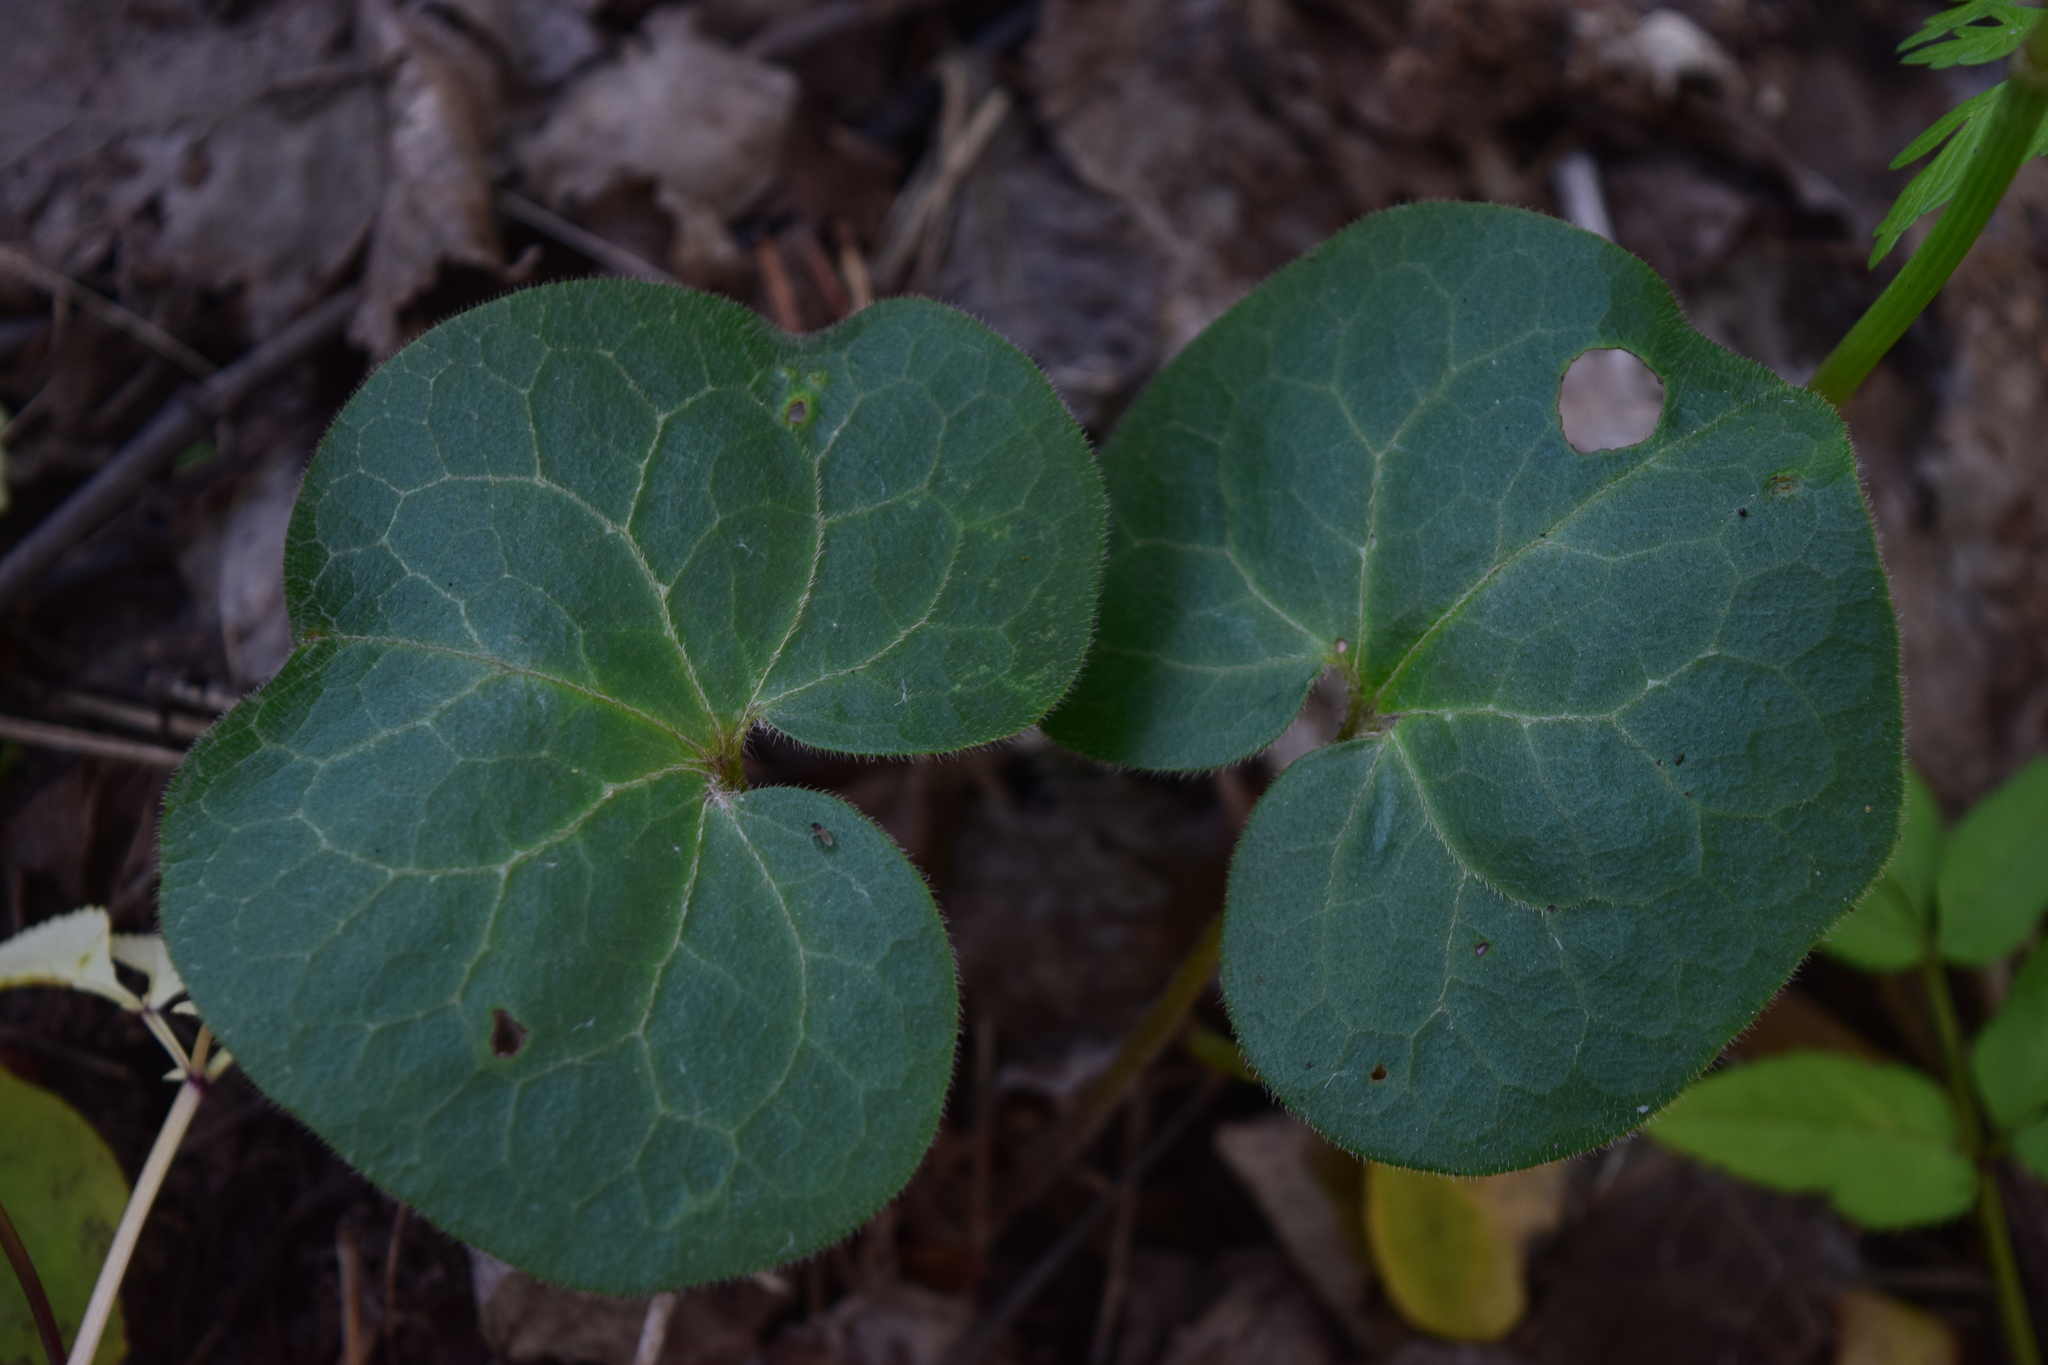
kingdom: Plantae
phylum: Tracheophyta
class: Magnoliopsida
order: Piperales
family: Aristolochiaceae
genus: Asarum
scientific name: Asarum europaeum
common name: Asarabacca
